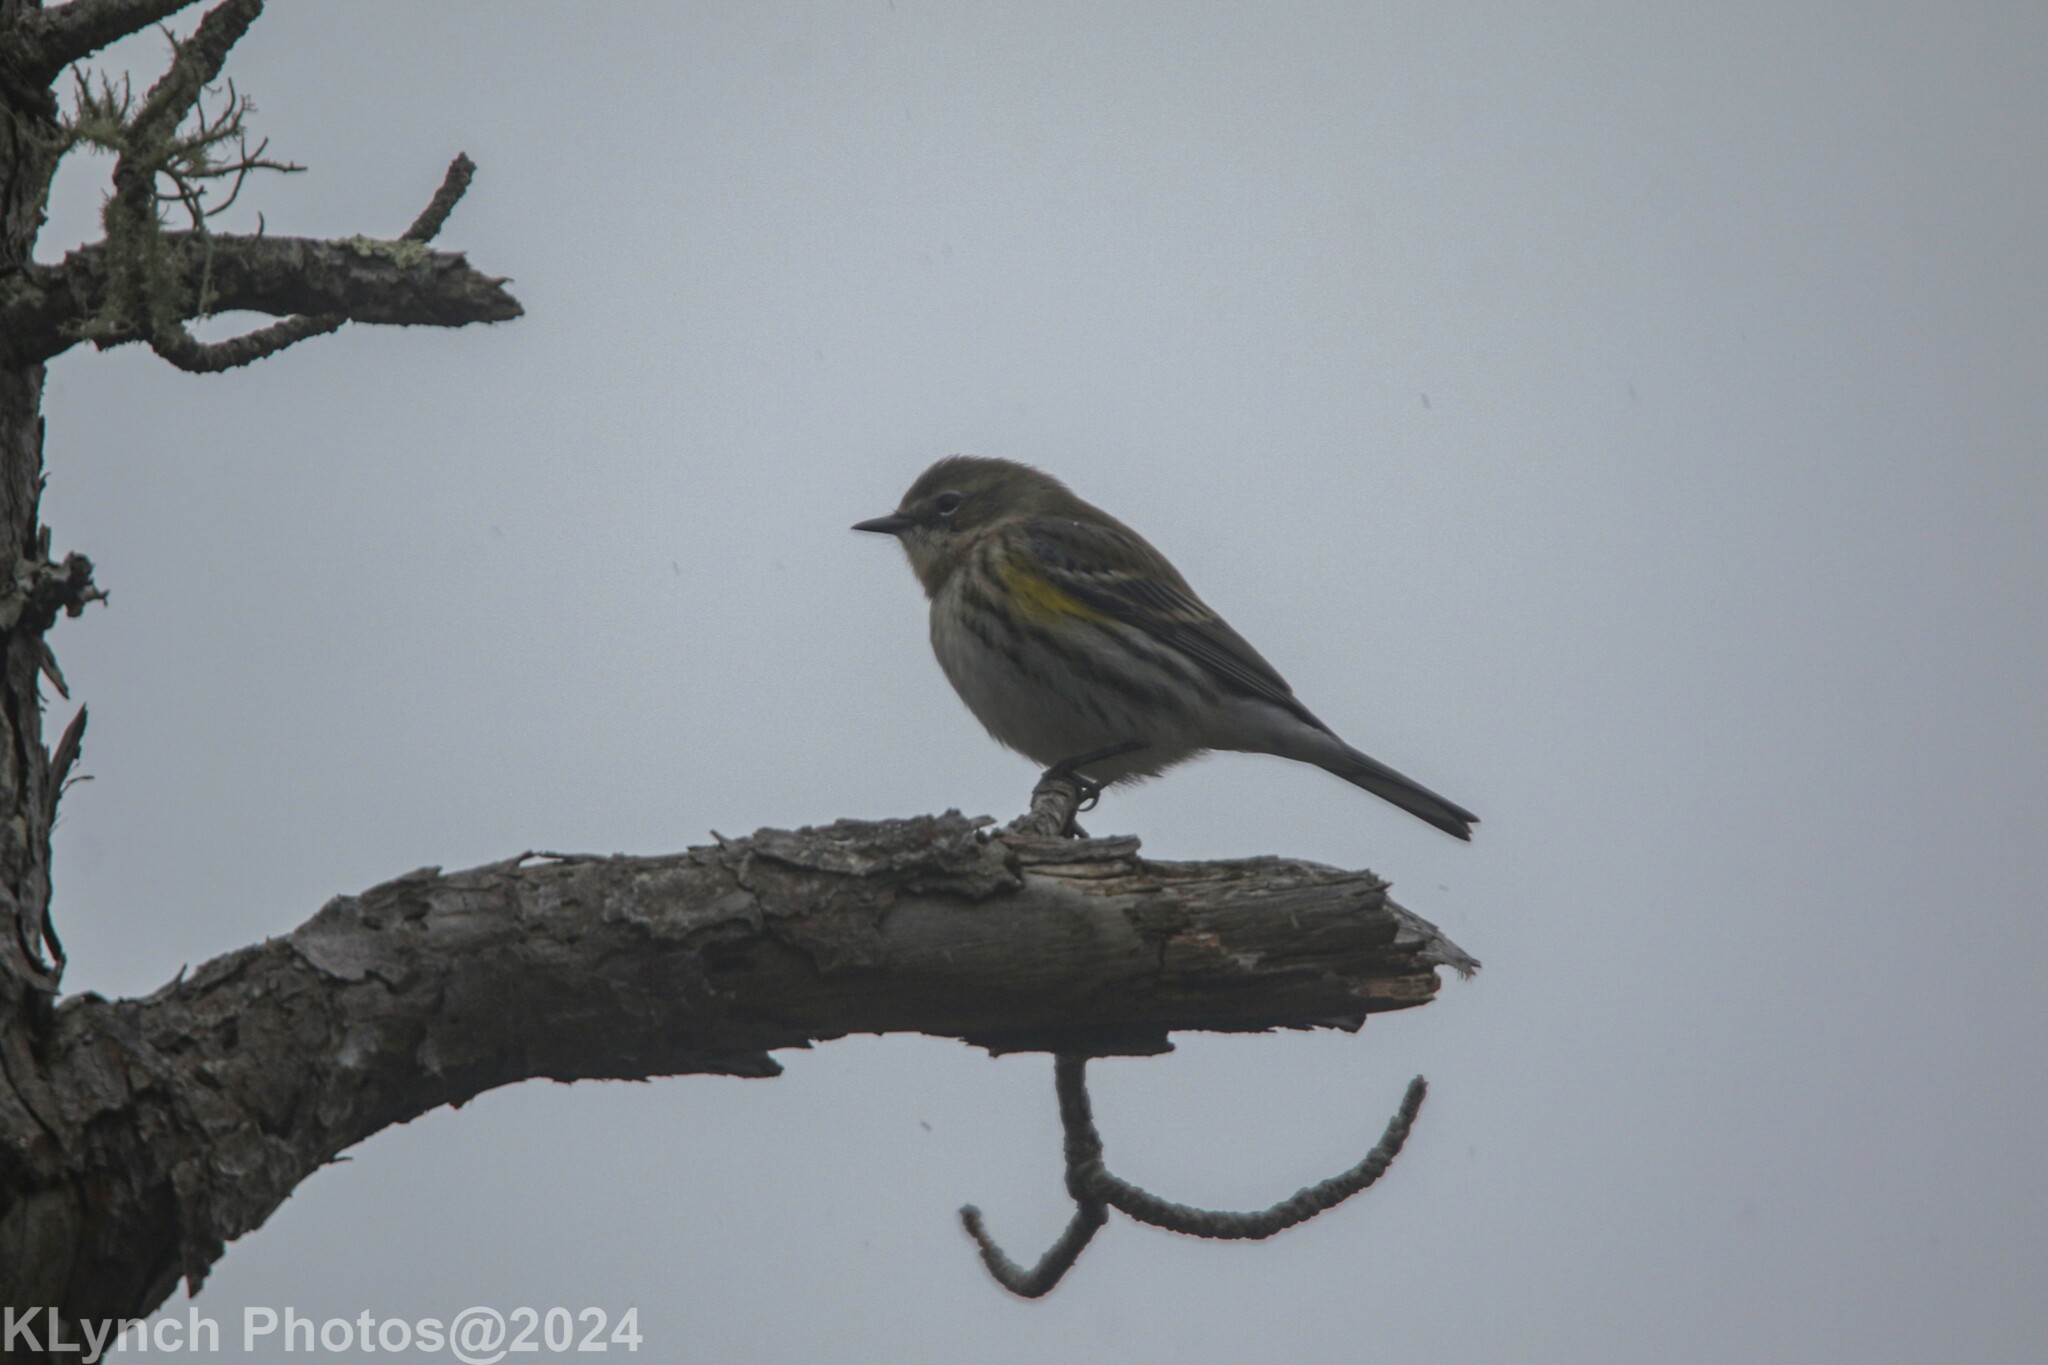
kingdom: Animalia
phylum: Chordata
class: Aves
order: Passeriformes
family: Parulidae
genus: Setophaga
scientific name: Setophaga coronata
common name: Myrtle warbler
